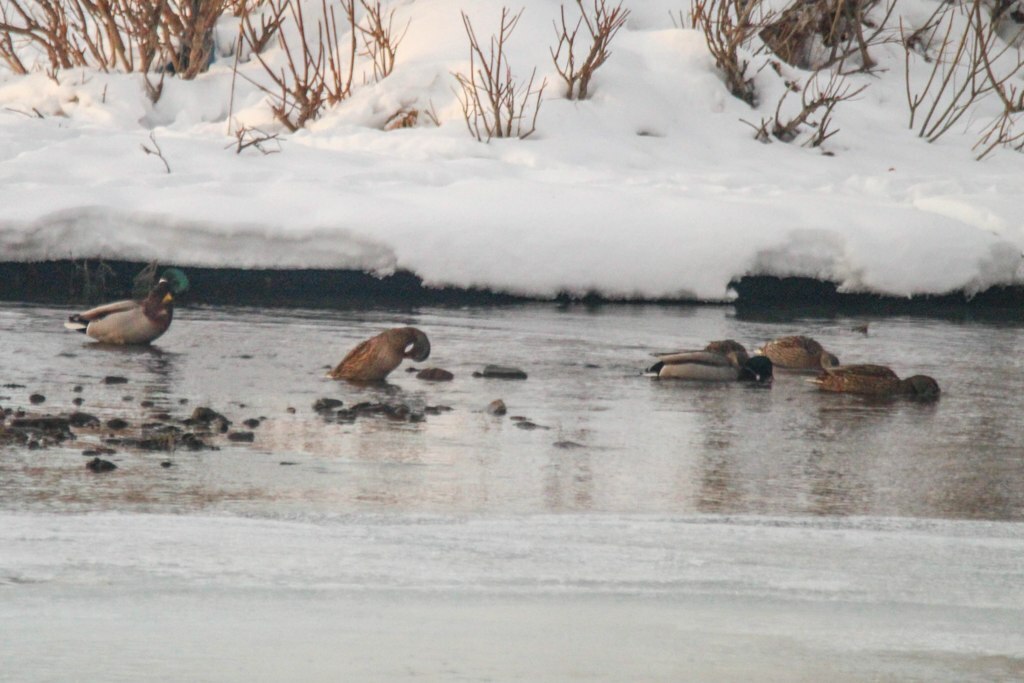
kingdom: Animalia
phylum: Chordata
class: Aves
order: Anseriformes
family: Anatidae
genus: Anas
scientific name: Anas platyrhynchos
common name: Mallard
